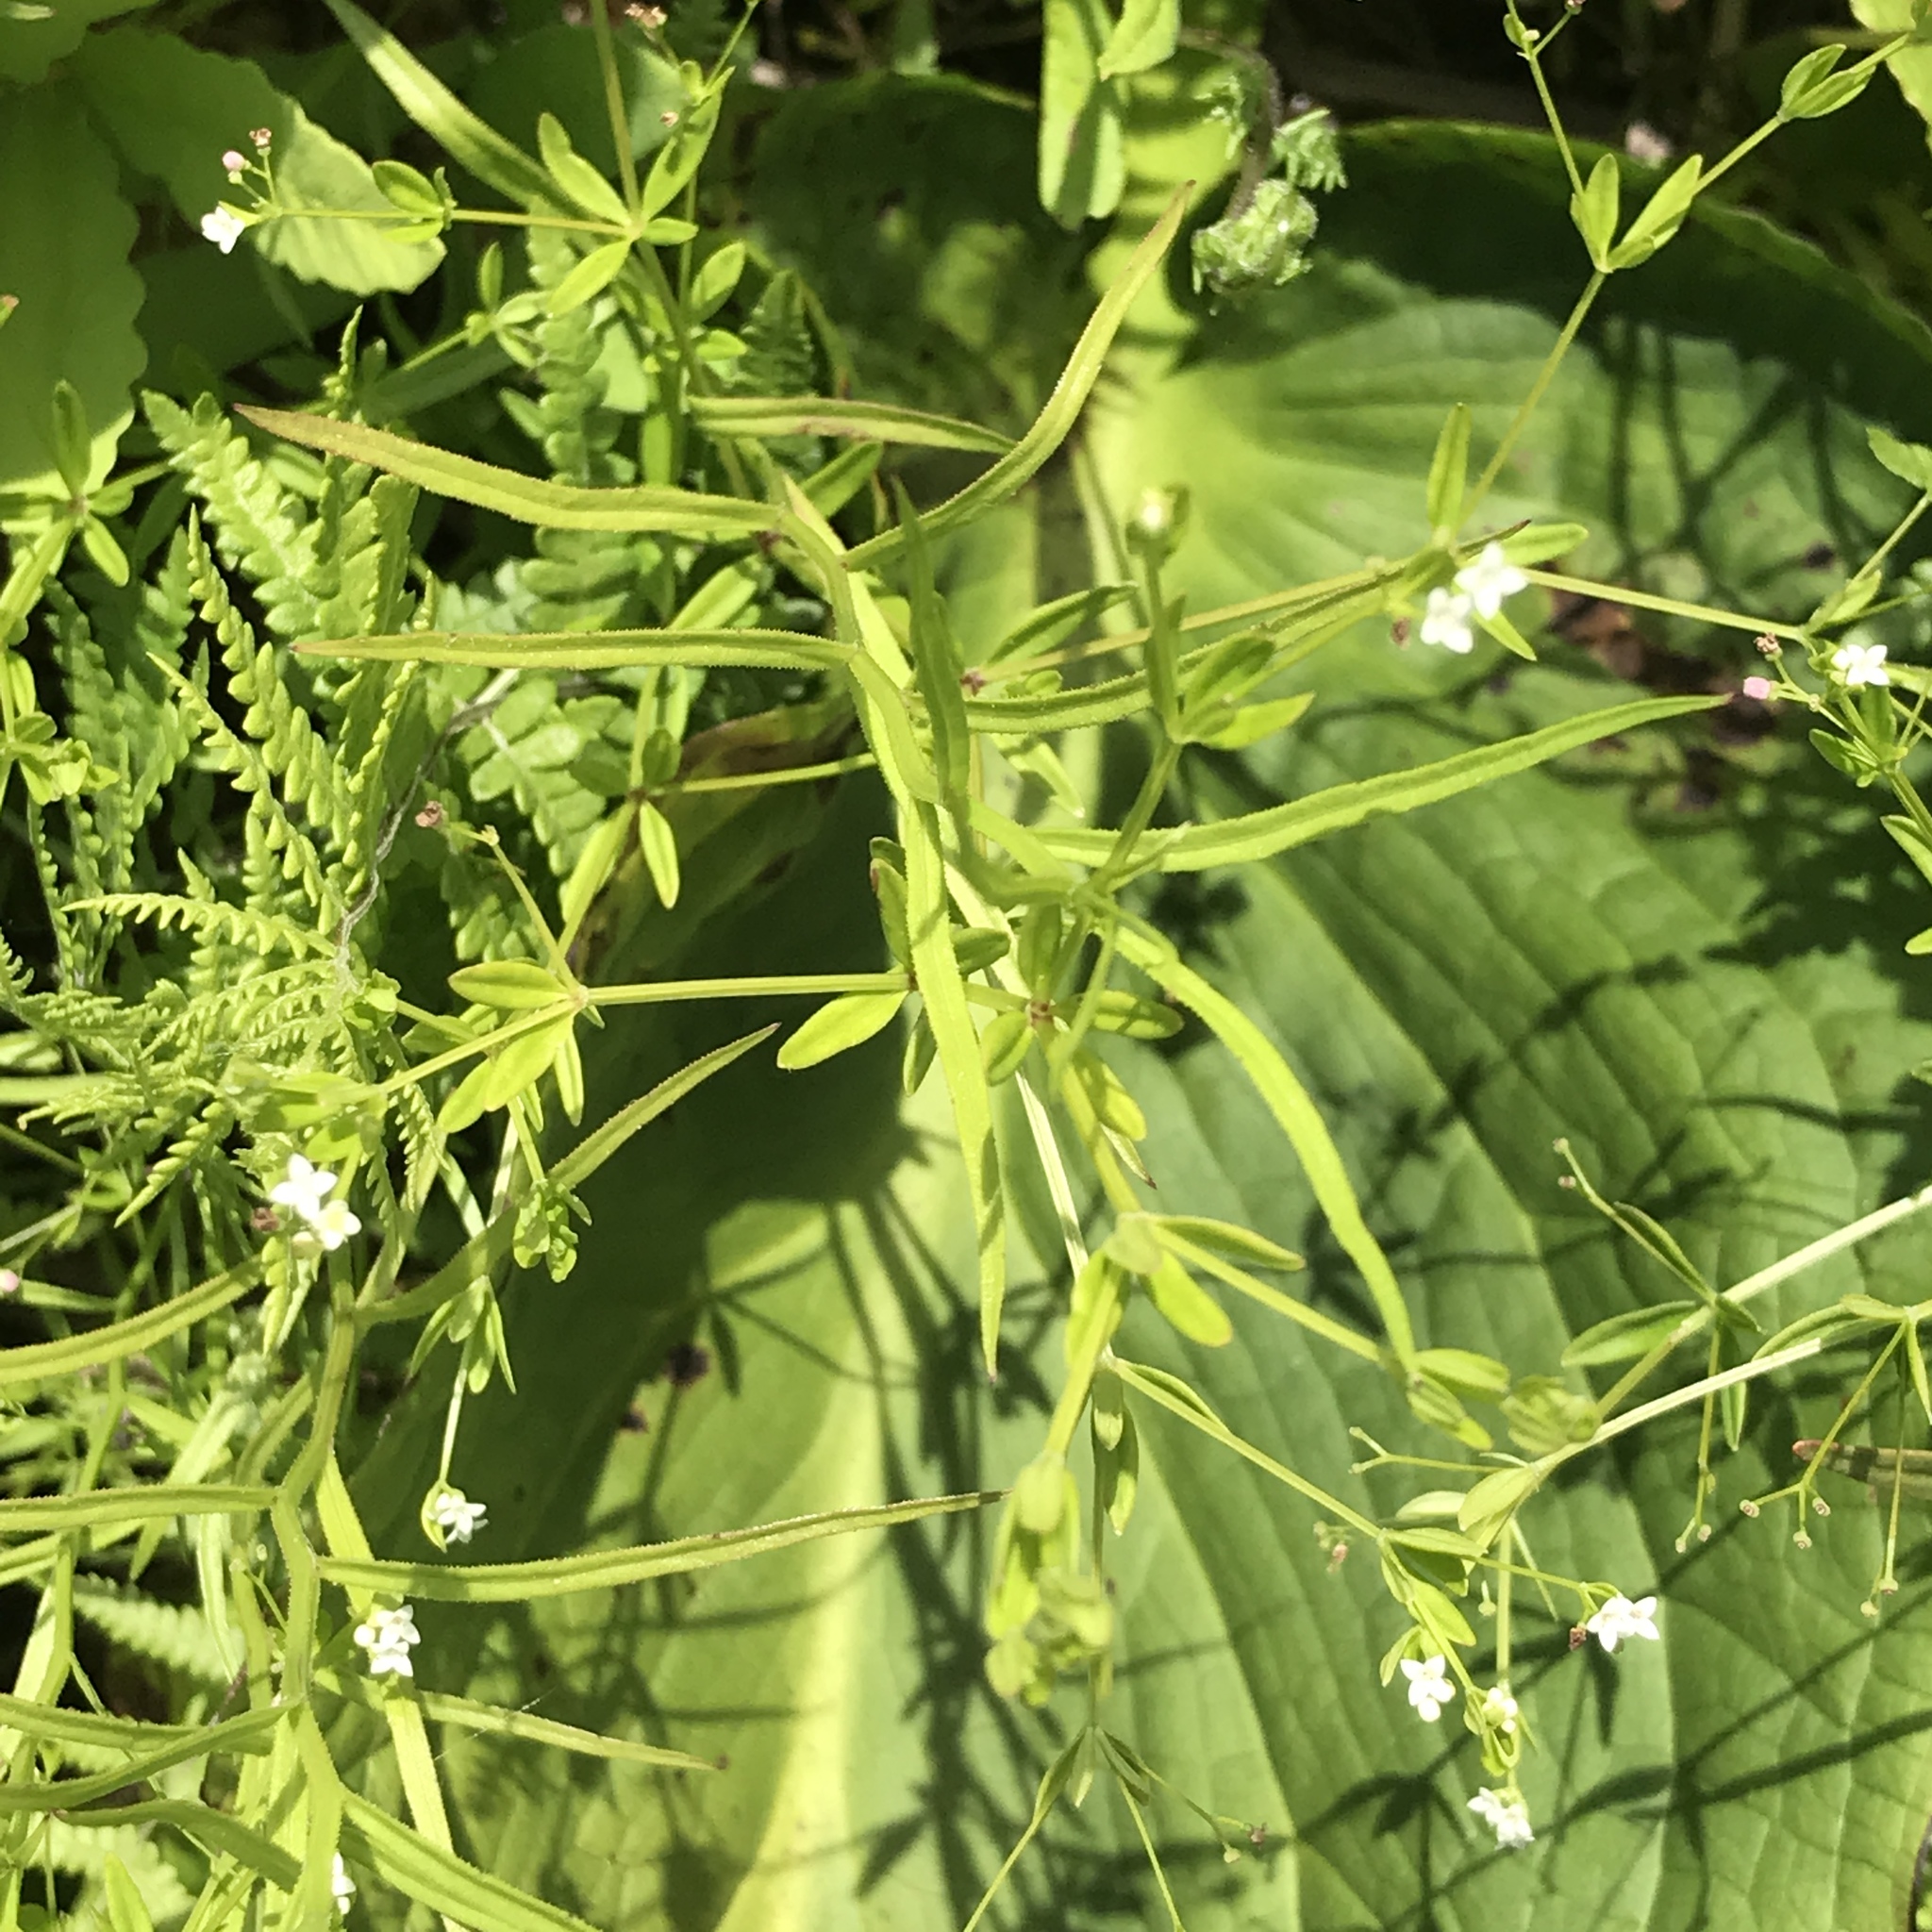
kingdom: Plantae
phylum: Tracheophyta
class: Magnoliopsida
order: Asterales
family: Campanulaceae
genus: Palustricodon
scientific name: Palustricodon aparinoides
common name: Bedstraw bellflower
